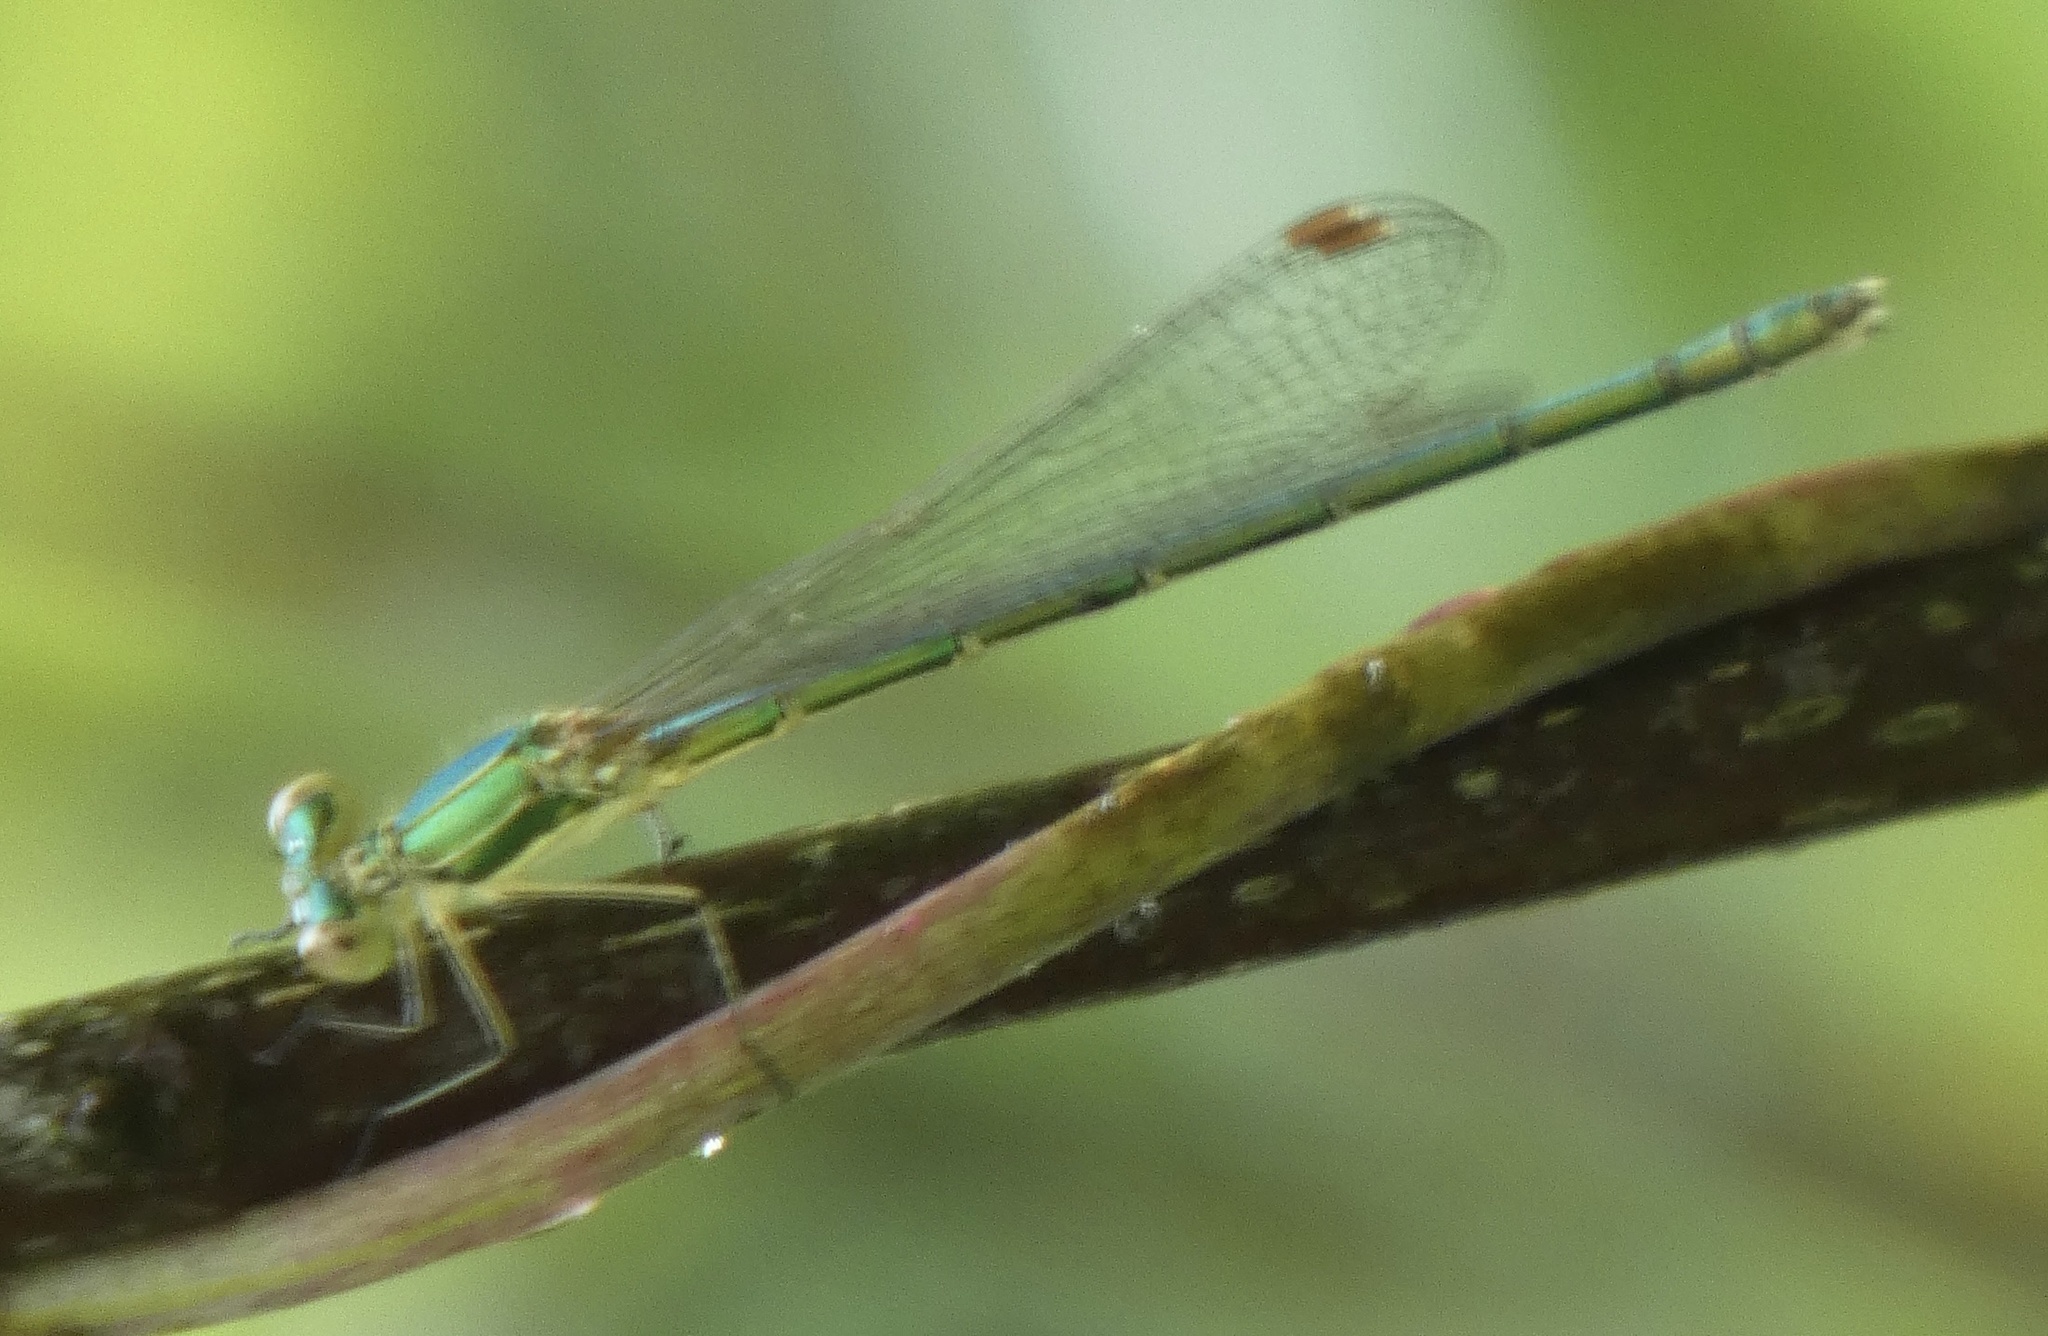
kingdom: Animalia
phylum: Arthropoda
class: Insecta
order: Odonata
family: Lestidae
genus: Lestes
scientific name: Lestes virens
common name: Small emerald spreadwing
